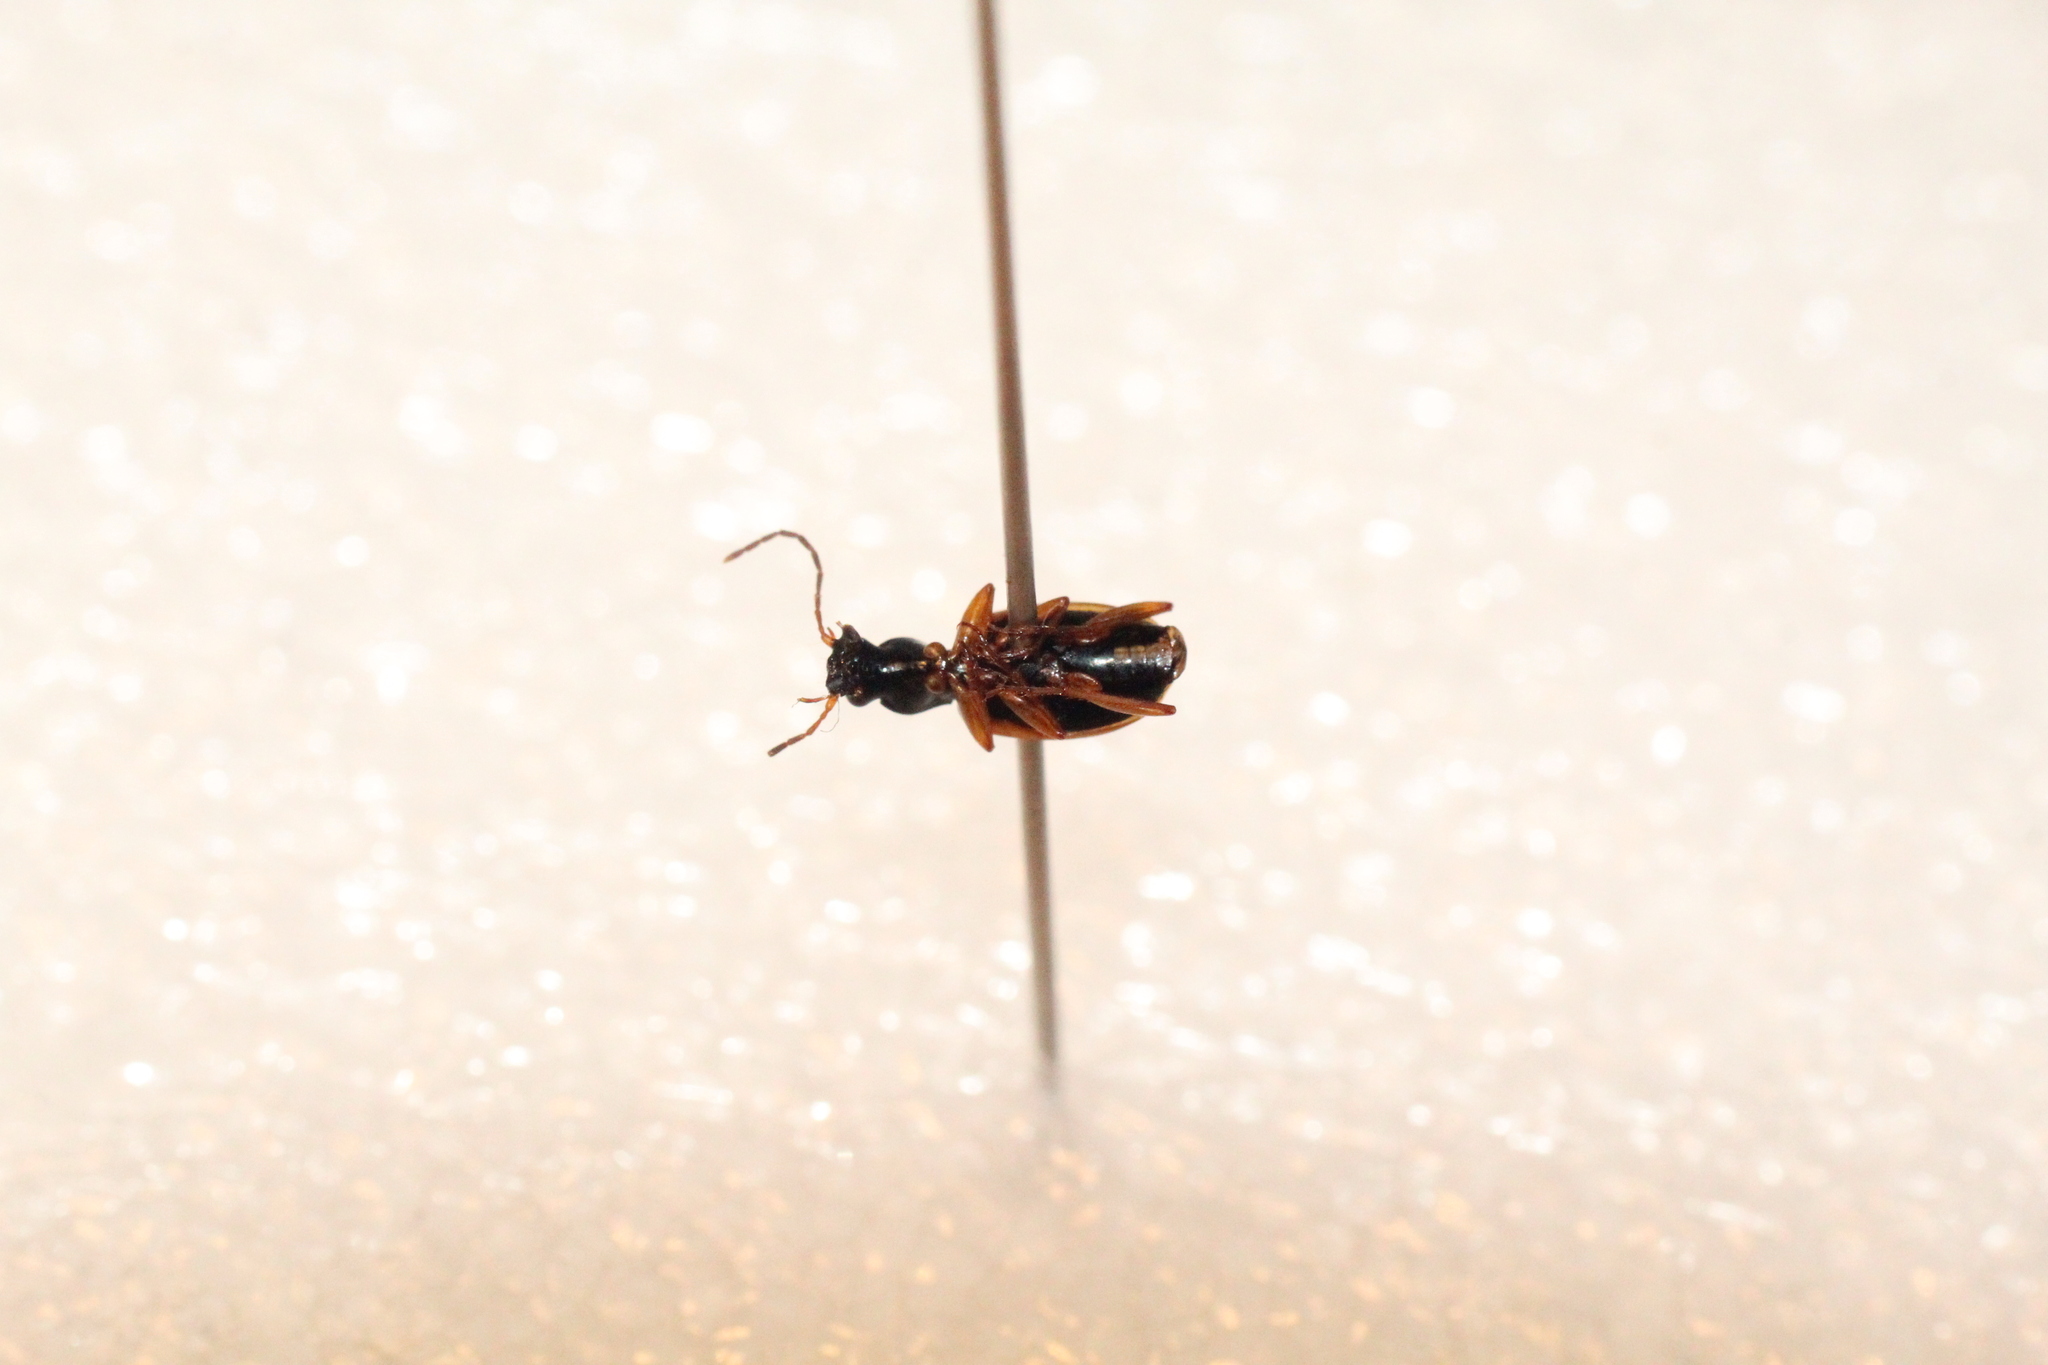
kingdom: Animalia
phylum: Arthropoda
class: Insecta
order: Coleoptera
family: Carabidae
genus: Anchomenus
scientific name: Anchomenus dorsalis
